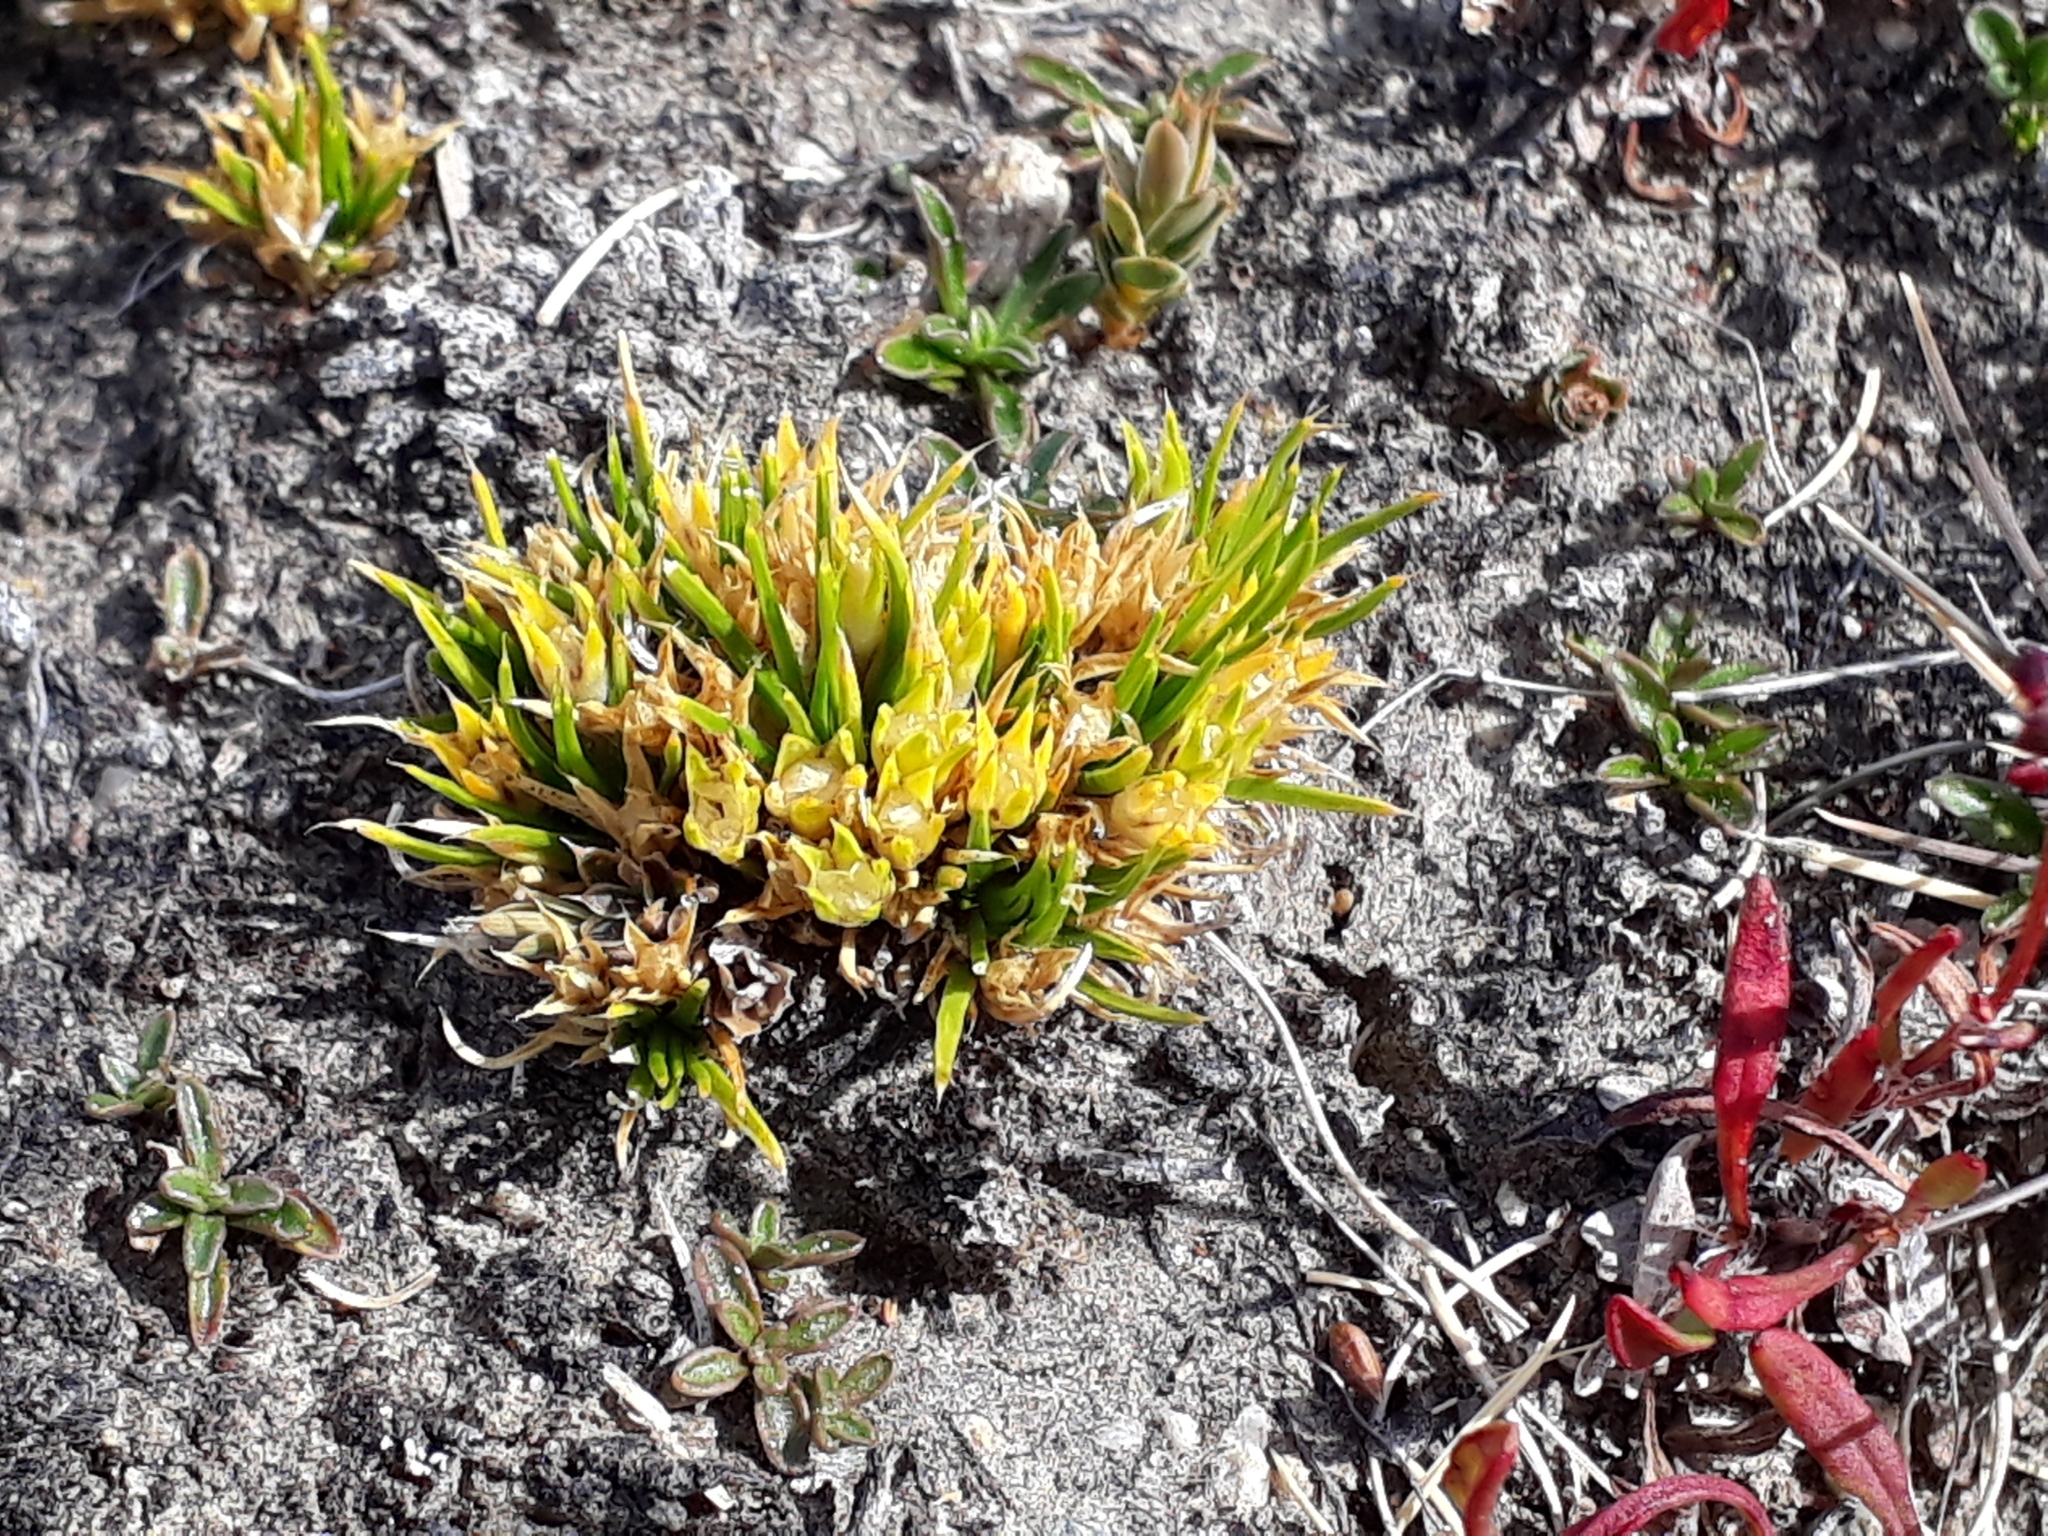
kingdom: Plantae
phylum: Tracheophyta
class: Magnoliopsida
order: Caryophyllales
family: Caryophyllaceae
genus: Colobanthus
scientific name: Colobanthus strictus
